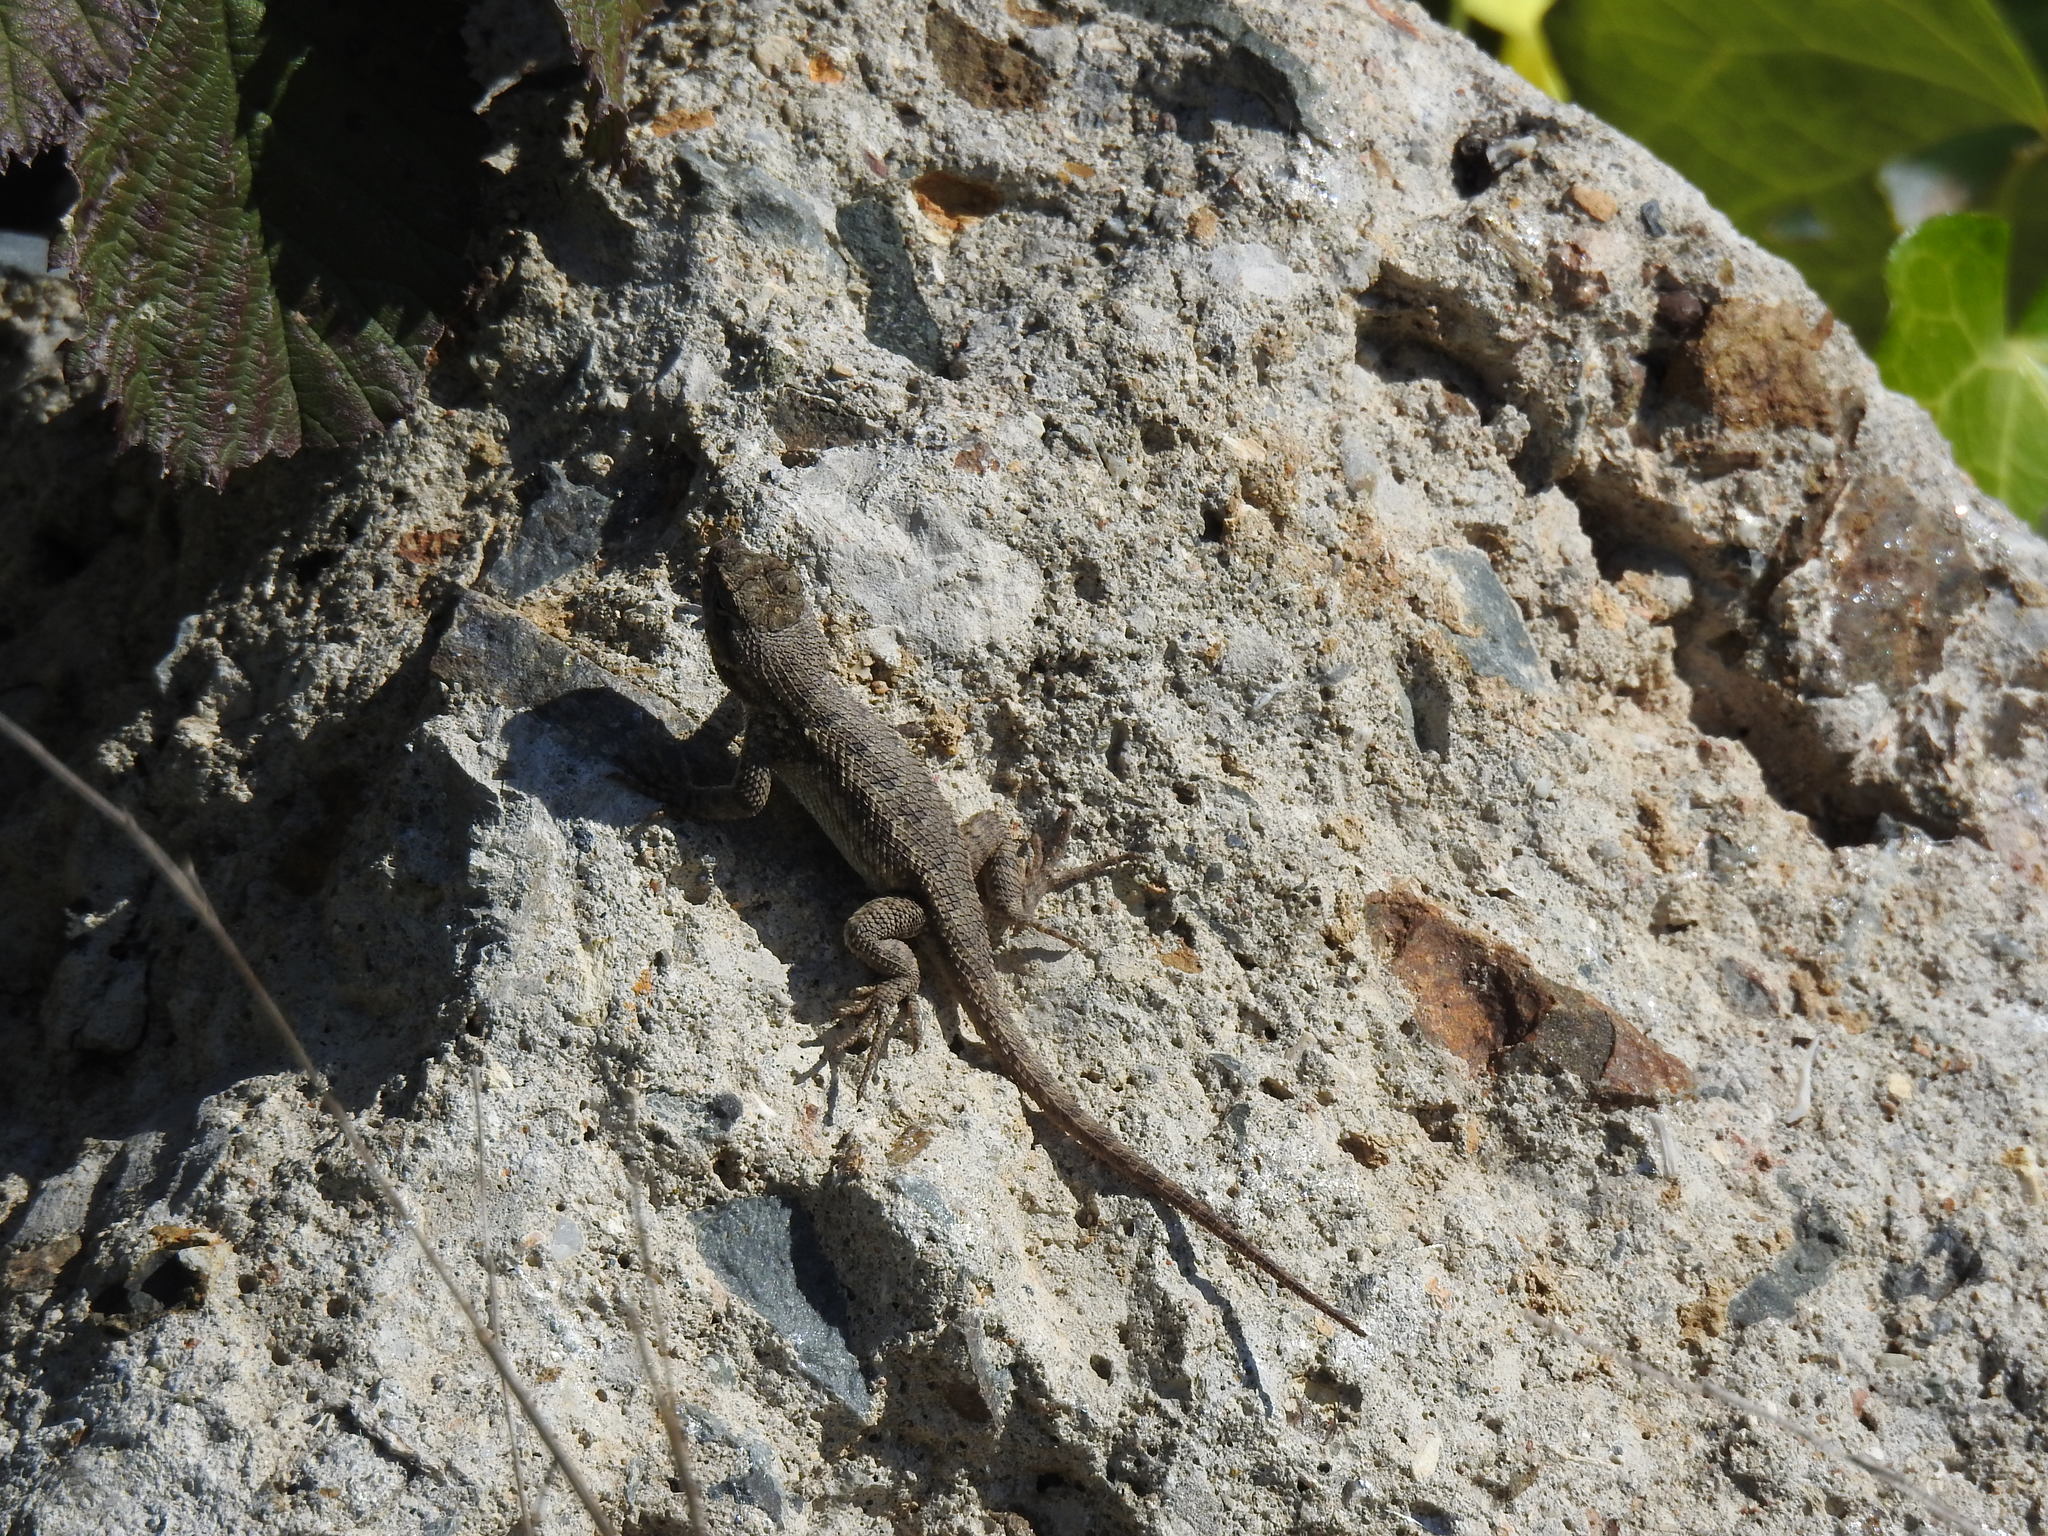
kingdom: Animalia
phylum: Chordata
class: Squamata
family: Phrynosomatidae
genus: Sceloporus
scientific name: Sceloporus occidentalis
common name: Western fence lizard
